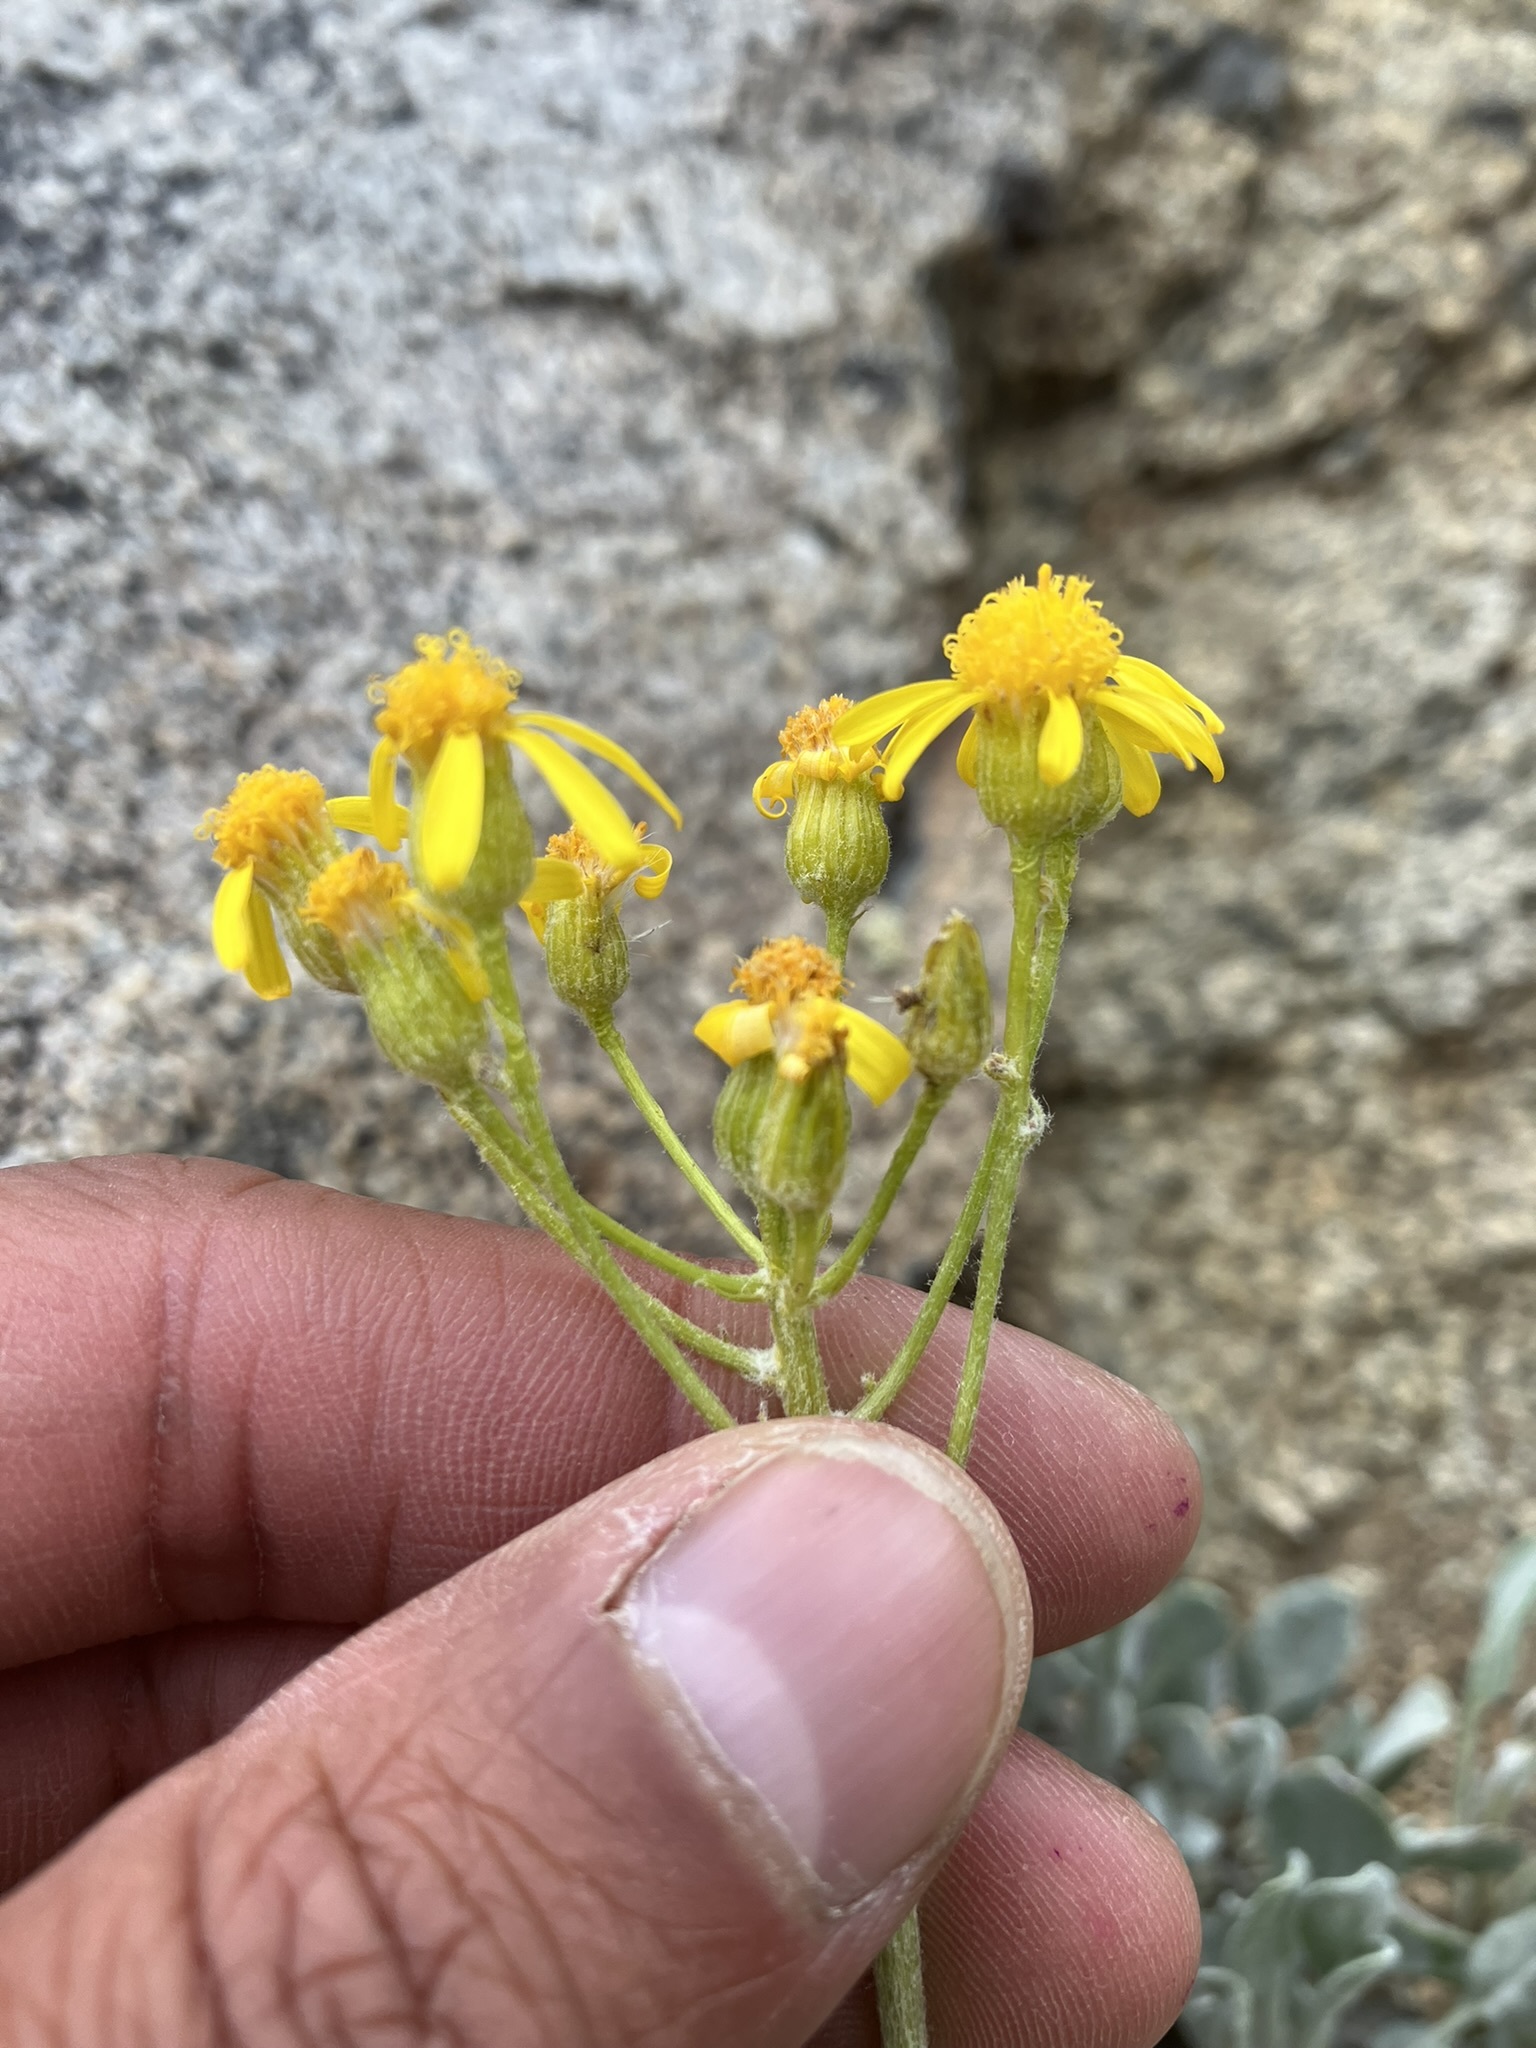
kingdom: Plantae
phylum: Tracheophyta
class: Magnoliopsida
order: Asterales
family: Asteraceae
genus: Packera
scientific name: Packera cana
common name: Woolly groundsel
